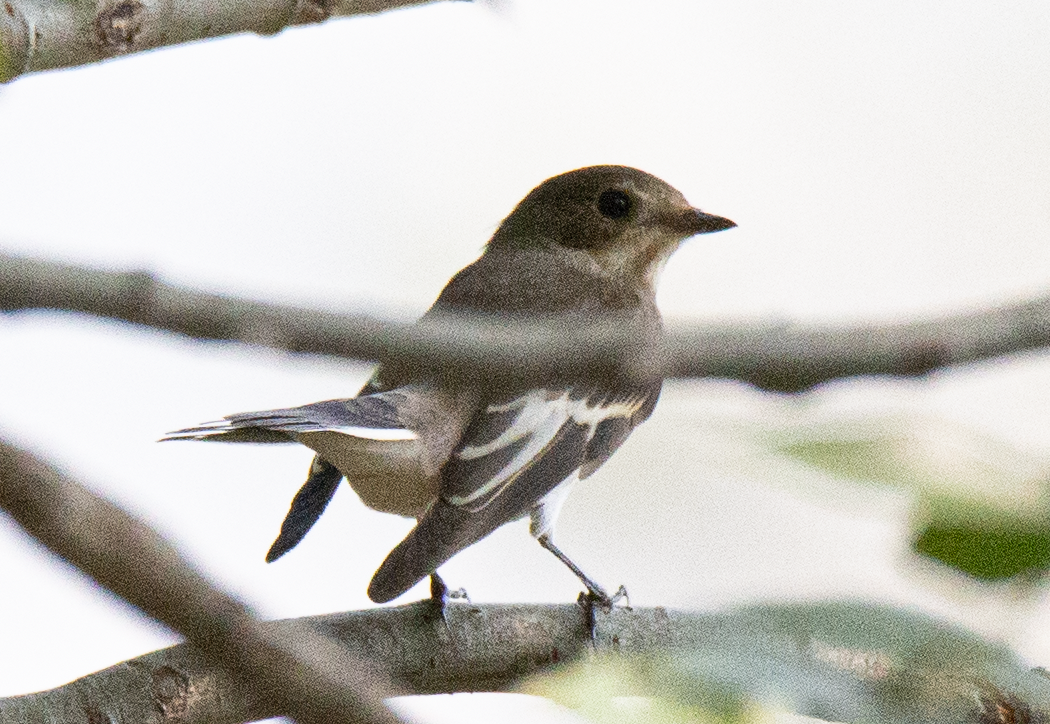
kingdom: Animalia
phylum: Chordata
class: Aves
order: Passeriformes
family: Muscicapidae
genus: Ficedula
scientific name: Ficedula hypoleuca
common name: European pied flycatcher
